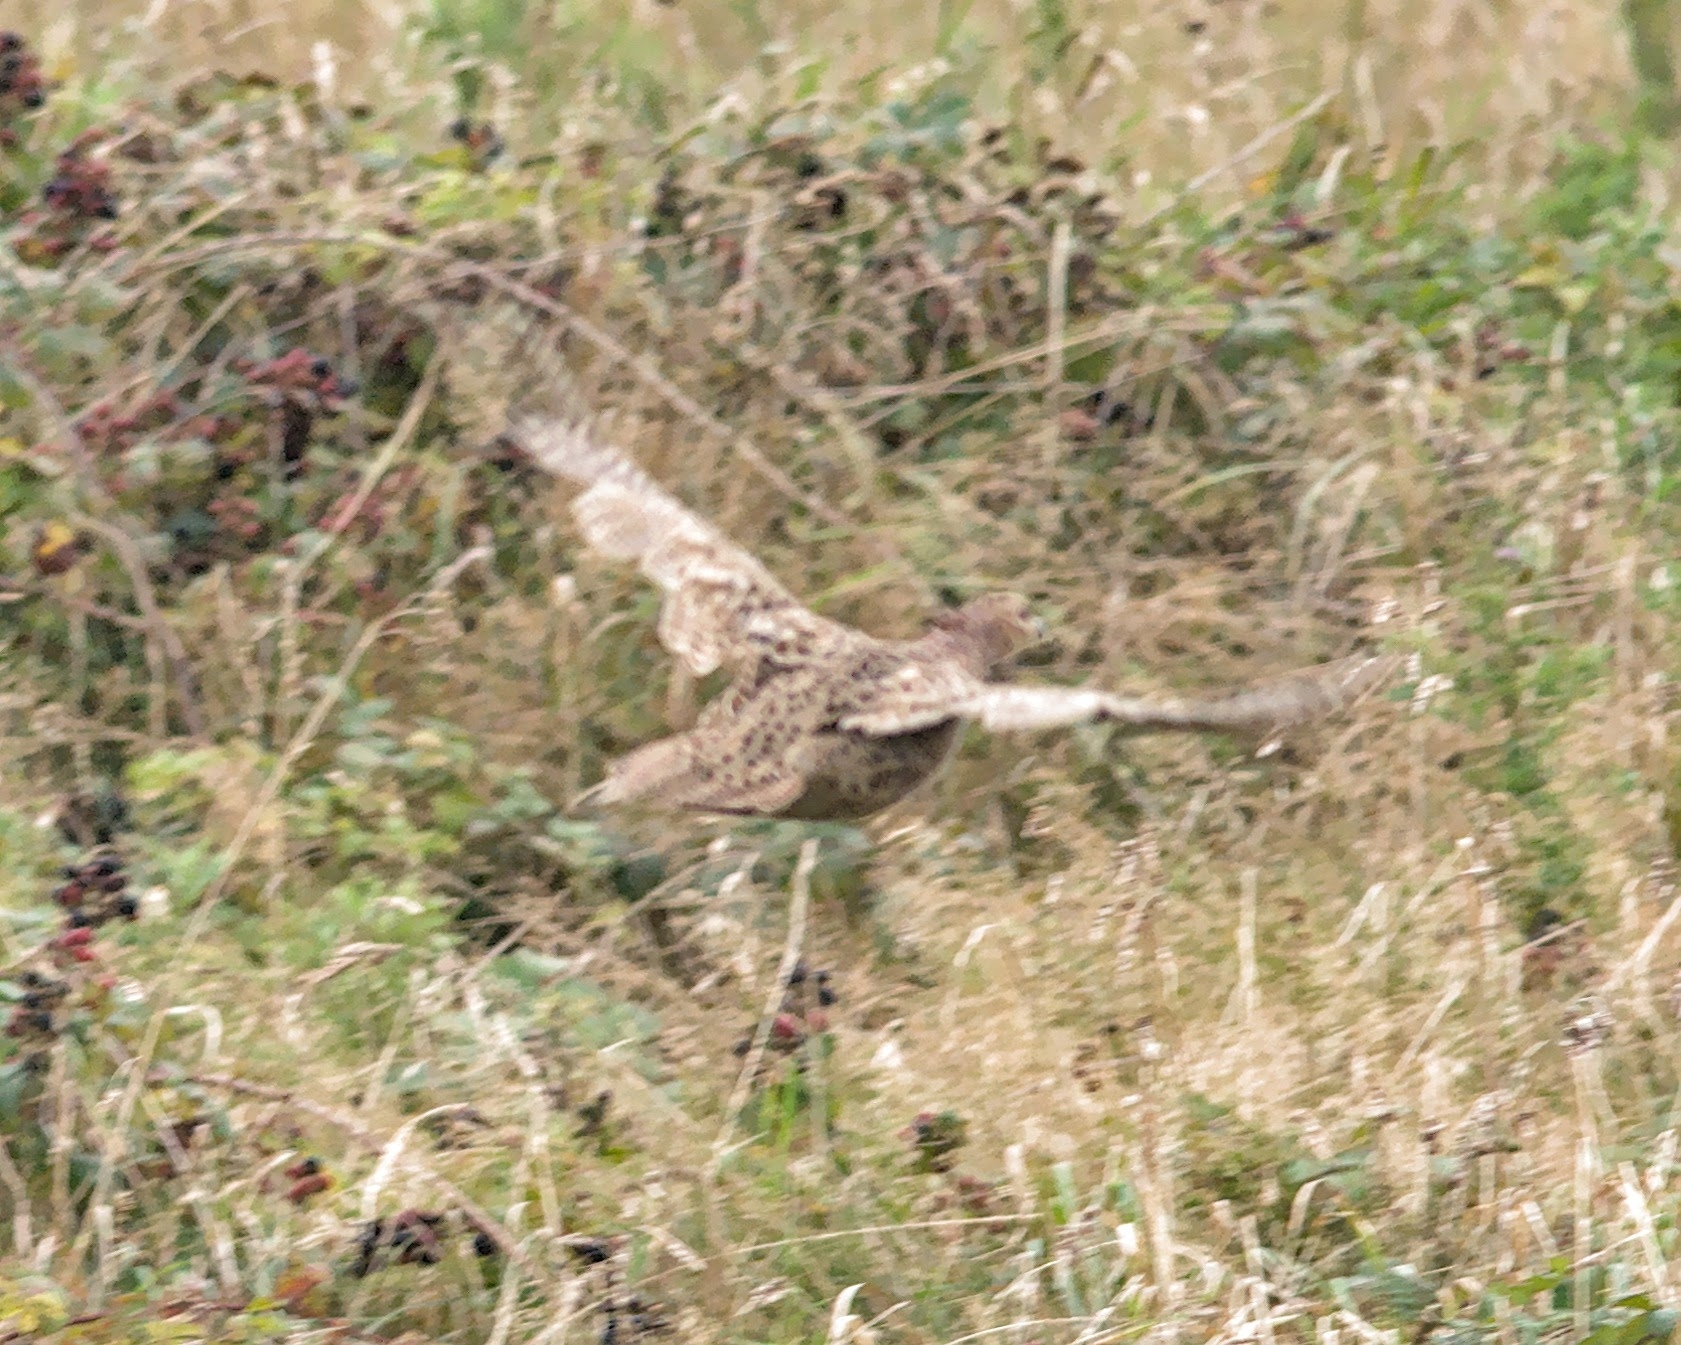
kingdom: Animalia
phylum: Chordata
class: Aves
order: Galliformes
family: Phasianidae
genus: Phasianus
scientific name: Phasianus colchicus
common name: Common pheasant
